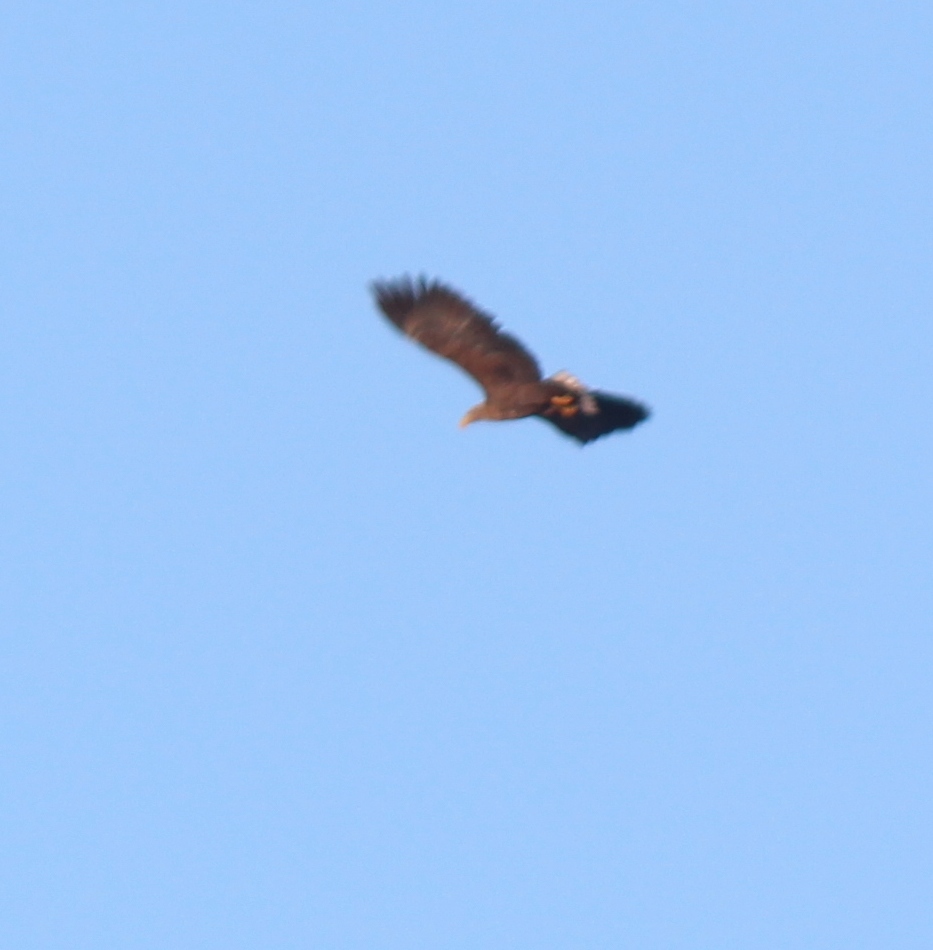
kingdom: Animalia
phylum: Chordata
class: Aves
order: Accipitriformes
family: Accipitridae
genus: Haliaeetus
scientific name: Haliaeetus albicilla
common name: White-tailed eagle
